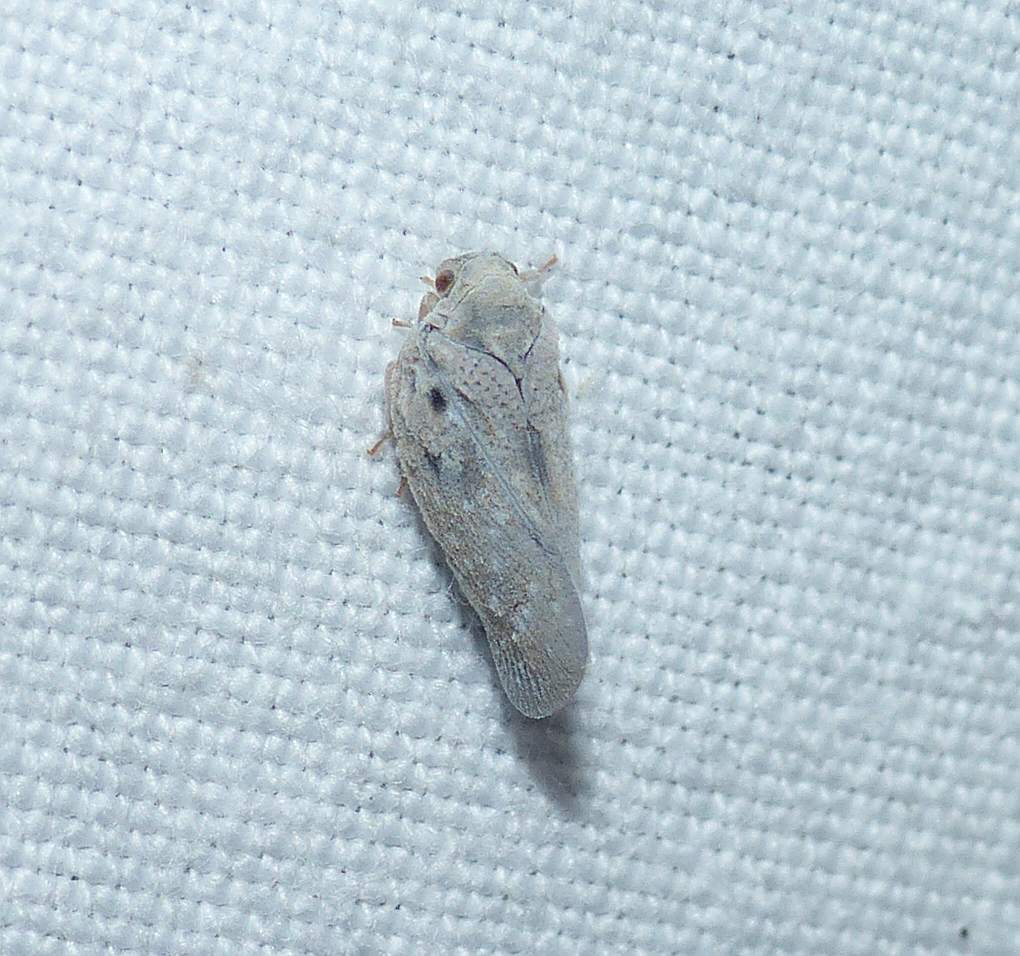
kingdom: Animalia
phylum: Arthropoda
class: Insecta
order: Hemiptera
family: Flatidae
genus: Metcalfa
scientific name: Metcalfa pruinosa
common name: Citrus flatid planthopper
